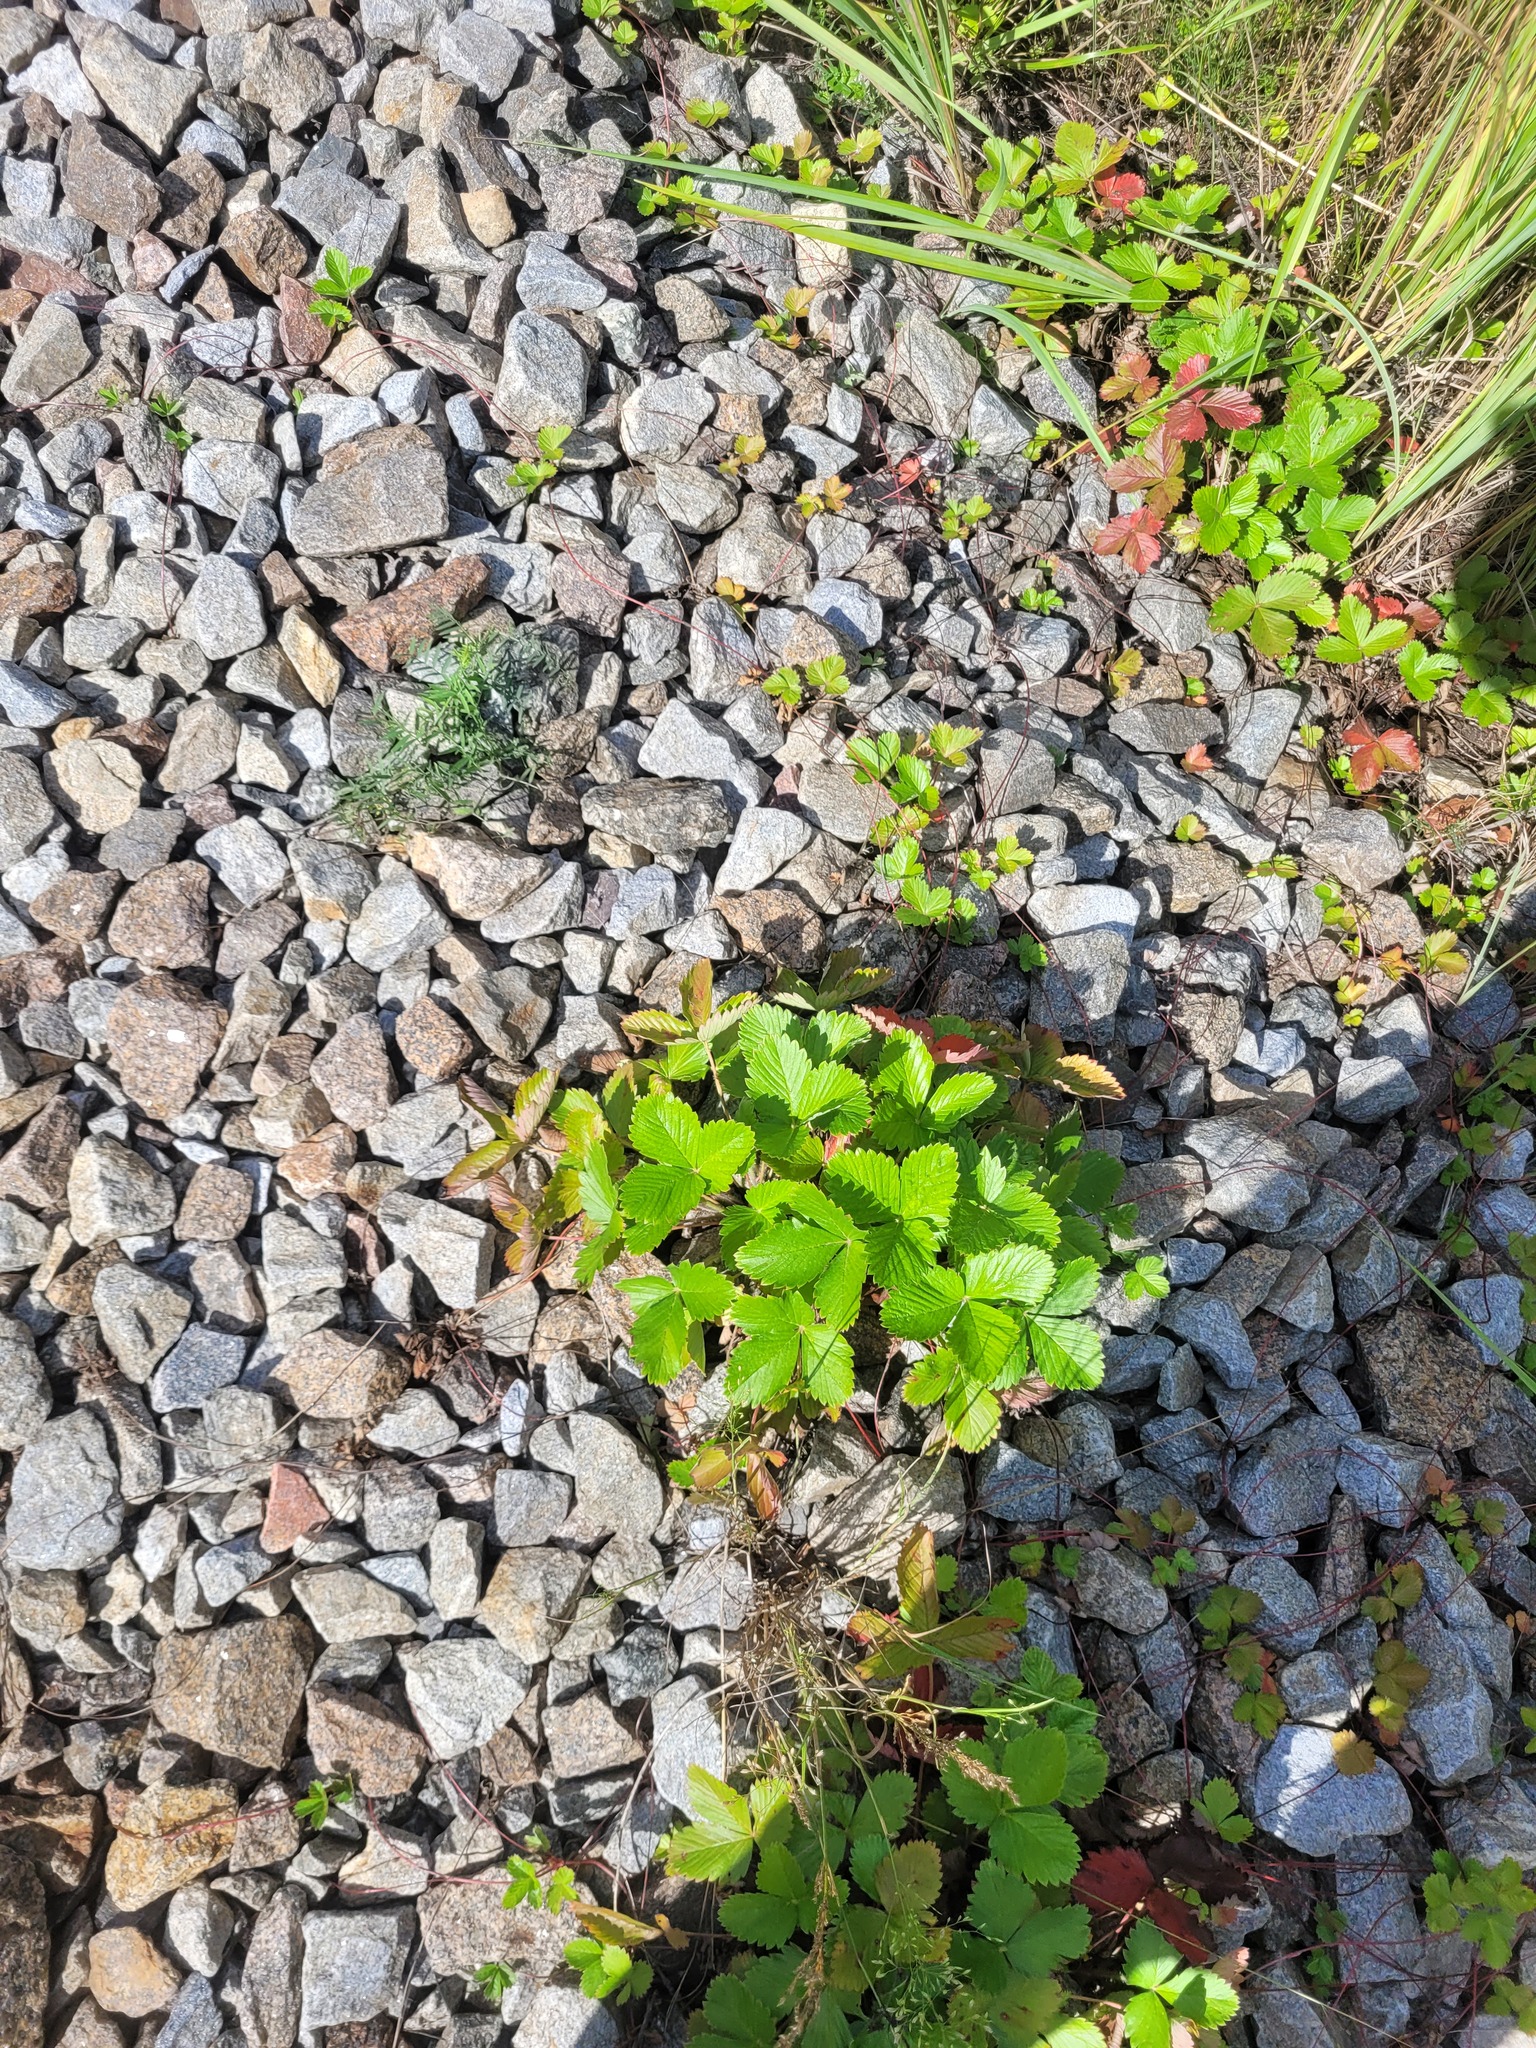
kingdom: Plantae
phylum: Tracheophyta
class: Magnoliopsida
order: Rosales
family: Rosaceae
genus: Fragaria
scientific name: Fragaria vesca
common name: Wild strawberry
